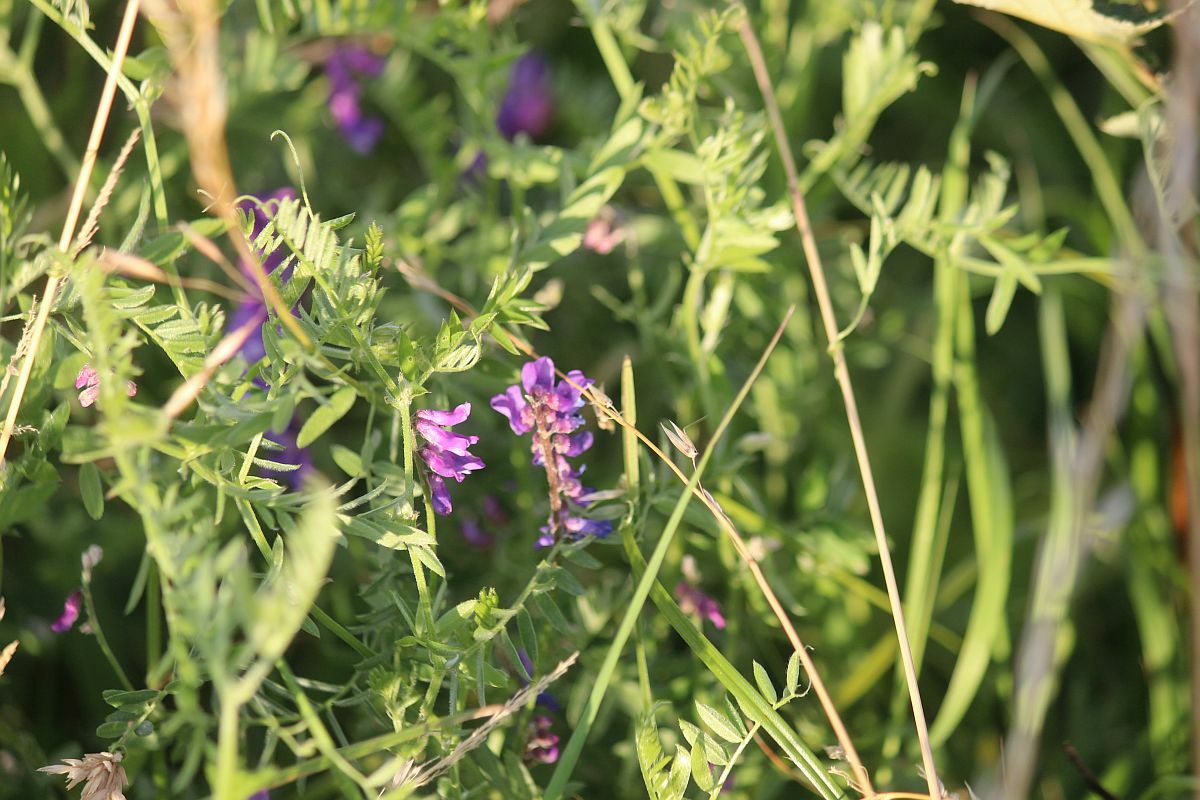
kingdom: Plantae
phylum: Tracheophyta
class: Magnoliopsida
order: Fabales
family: Fabaceae
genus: Vicia
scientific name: Vicia cracca
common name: Bird vetch
